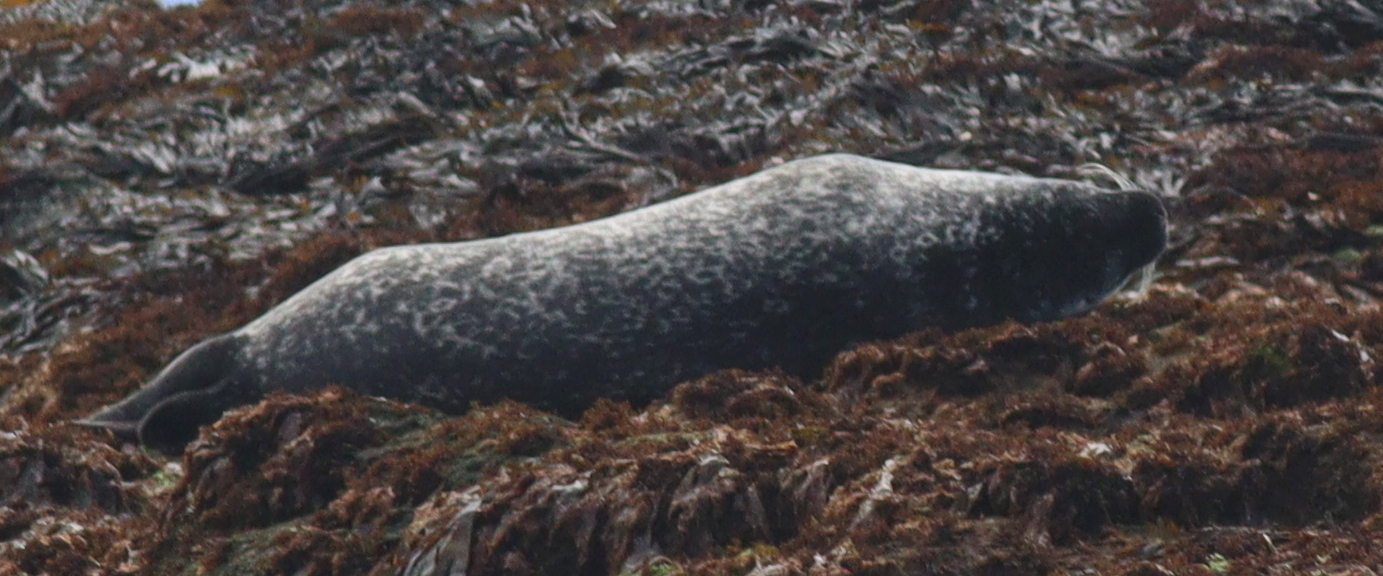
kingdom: Animalia
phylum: Chordata
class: Mammalia
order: Carnivora
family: Phocidae
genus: Phoca
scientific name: Phoca vitulina
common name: Harbor seal
